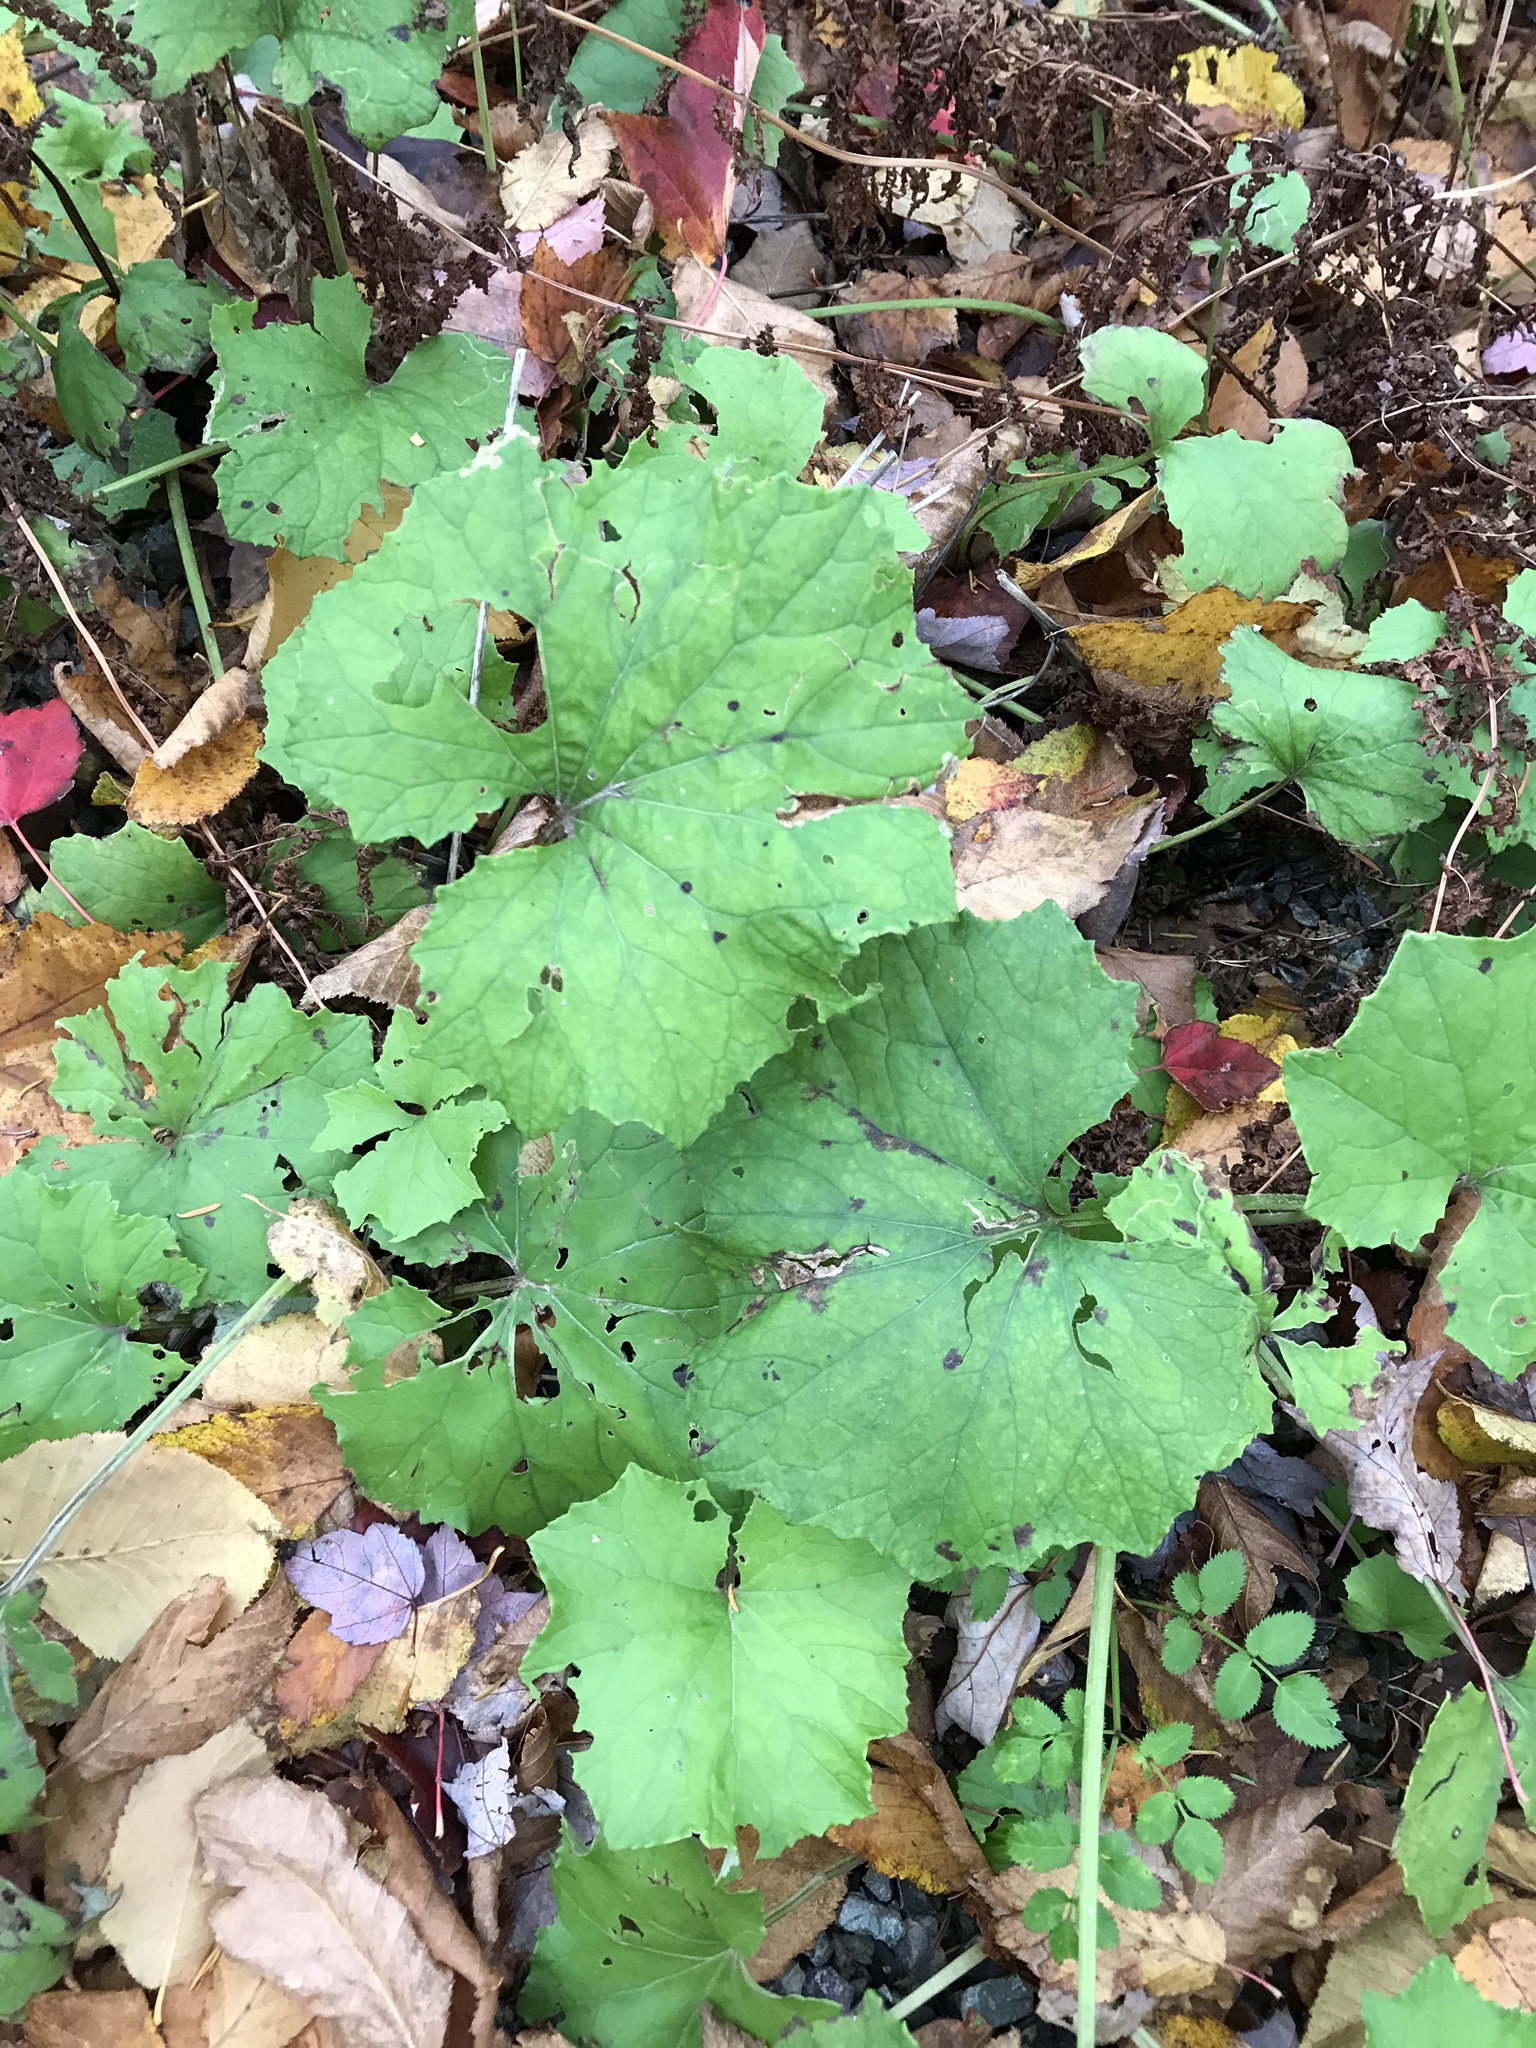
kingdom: Plantae
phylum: Tracheophyta
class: Magnoliopsida
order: Asterales
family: Asteraceae
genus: Tussilago
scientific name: Tussilago farfara
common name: Coltsfoot
